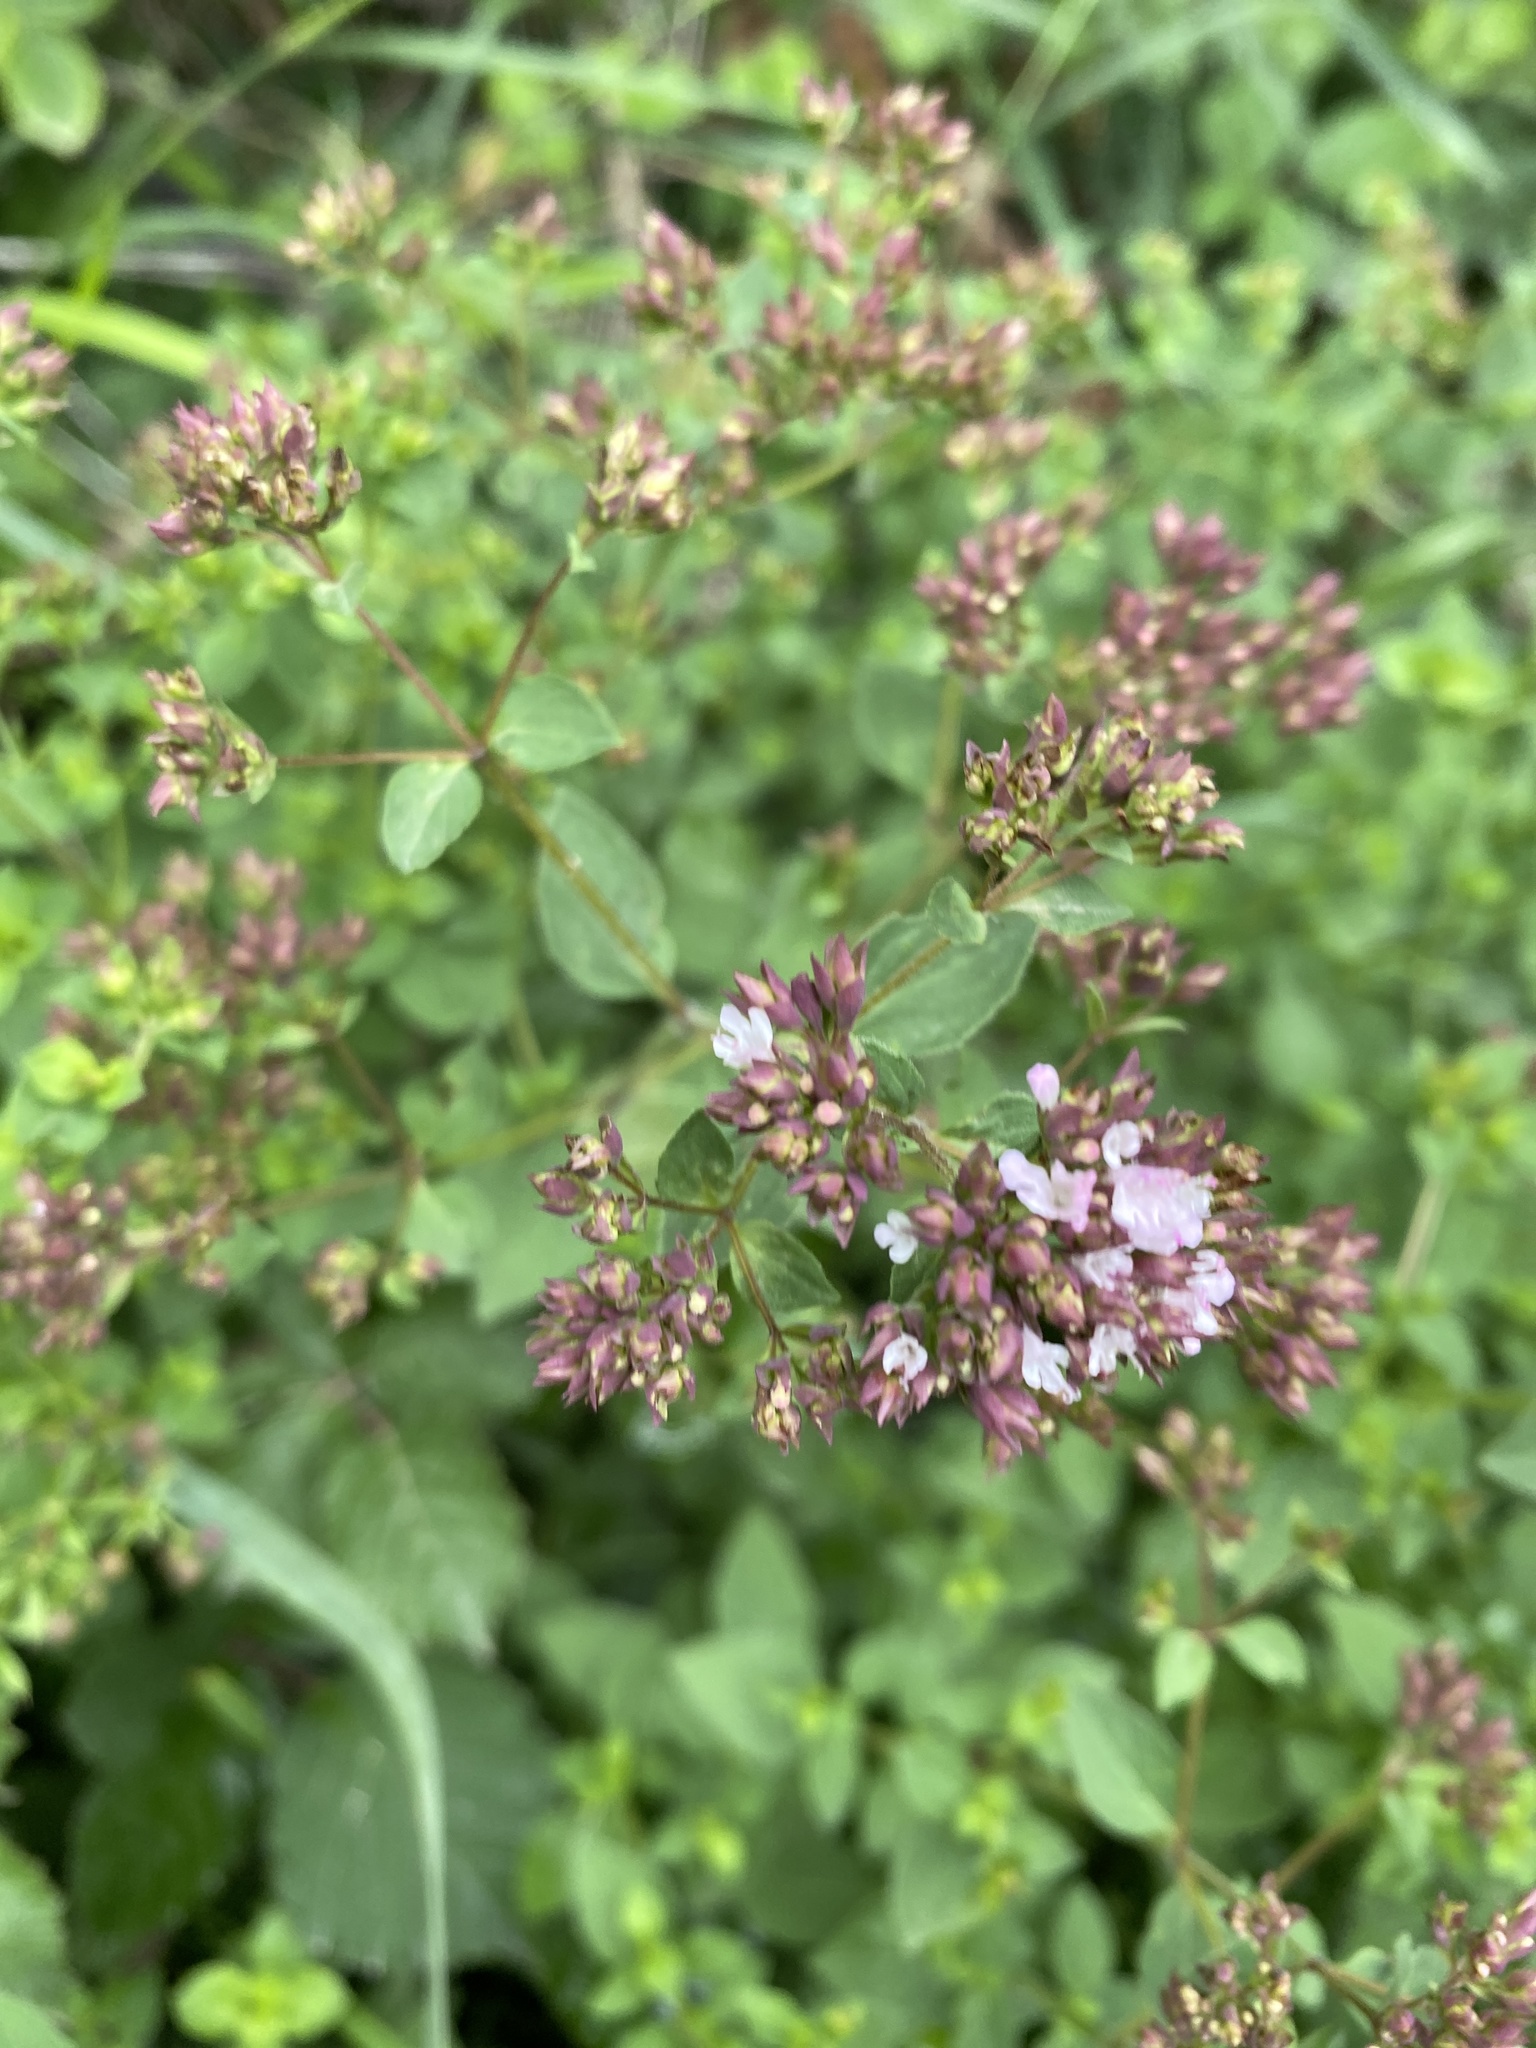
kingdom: Plantae
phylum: Tracheophyta
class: Magnoliopsida
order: Lamiales
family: Lamiaceae
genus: Origanum
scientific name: Origanum vulgare
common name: Wild marjoram
